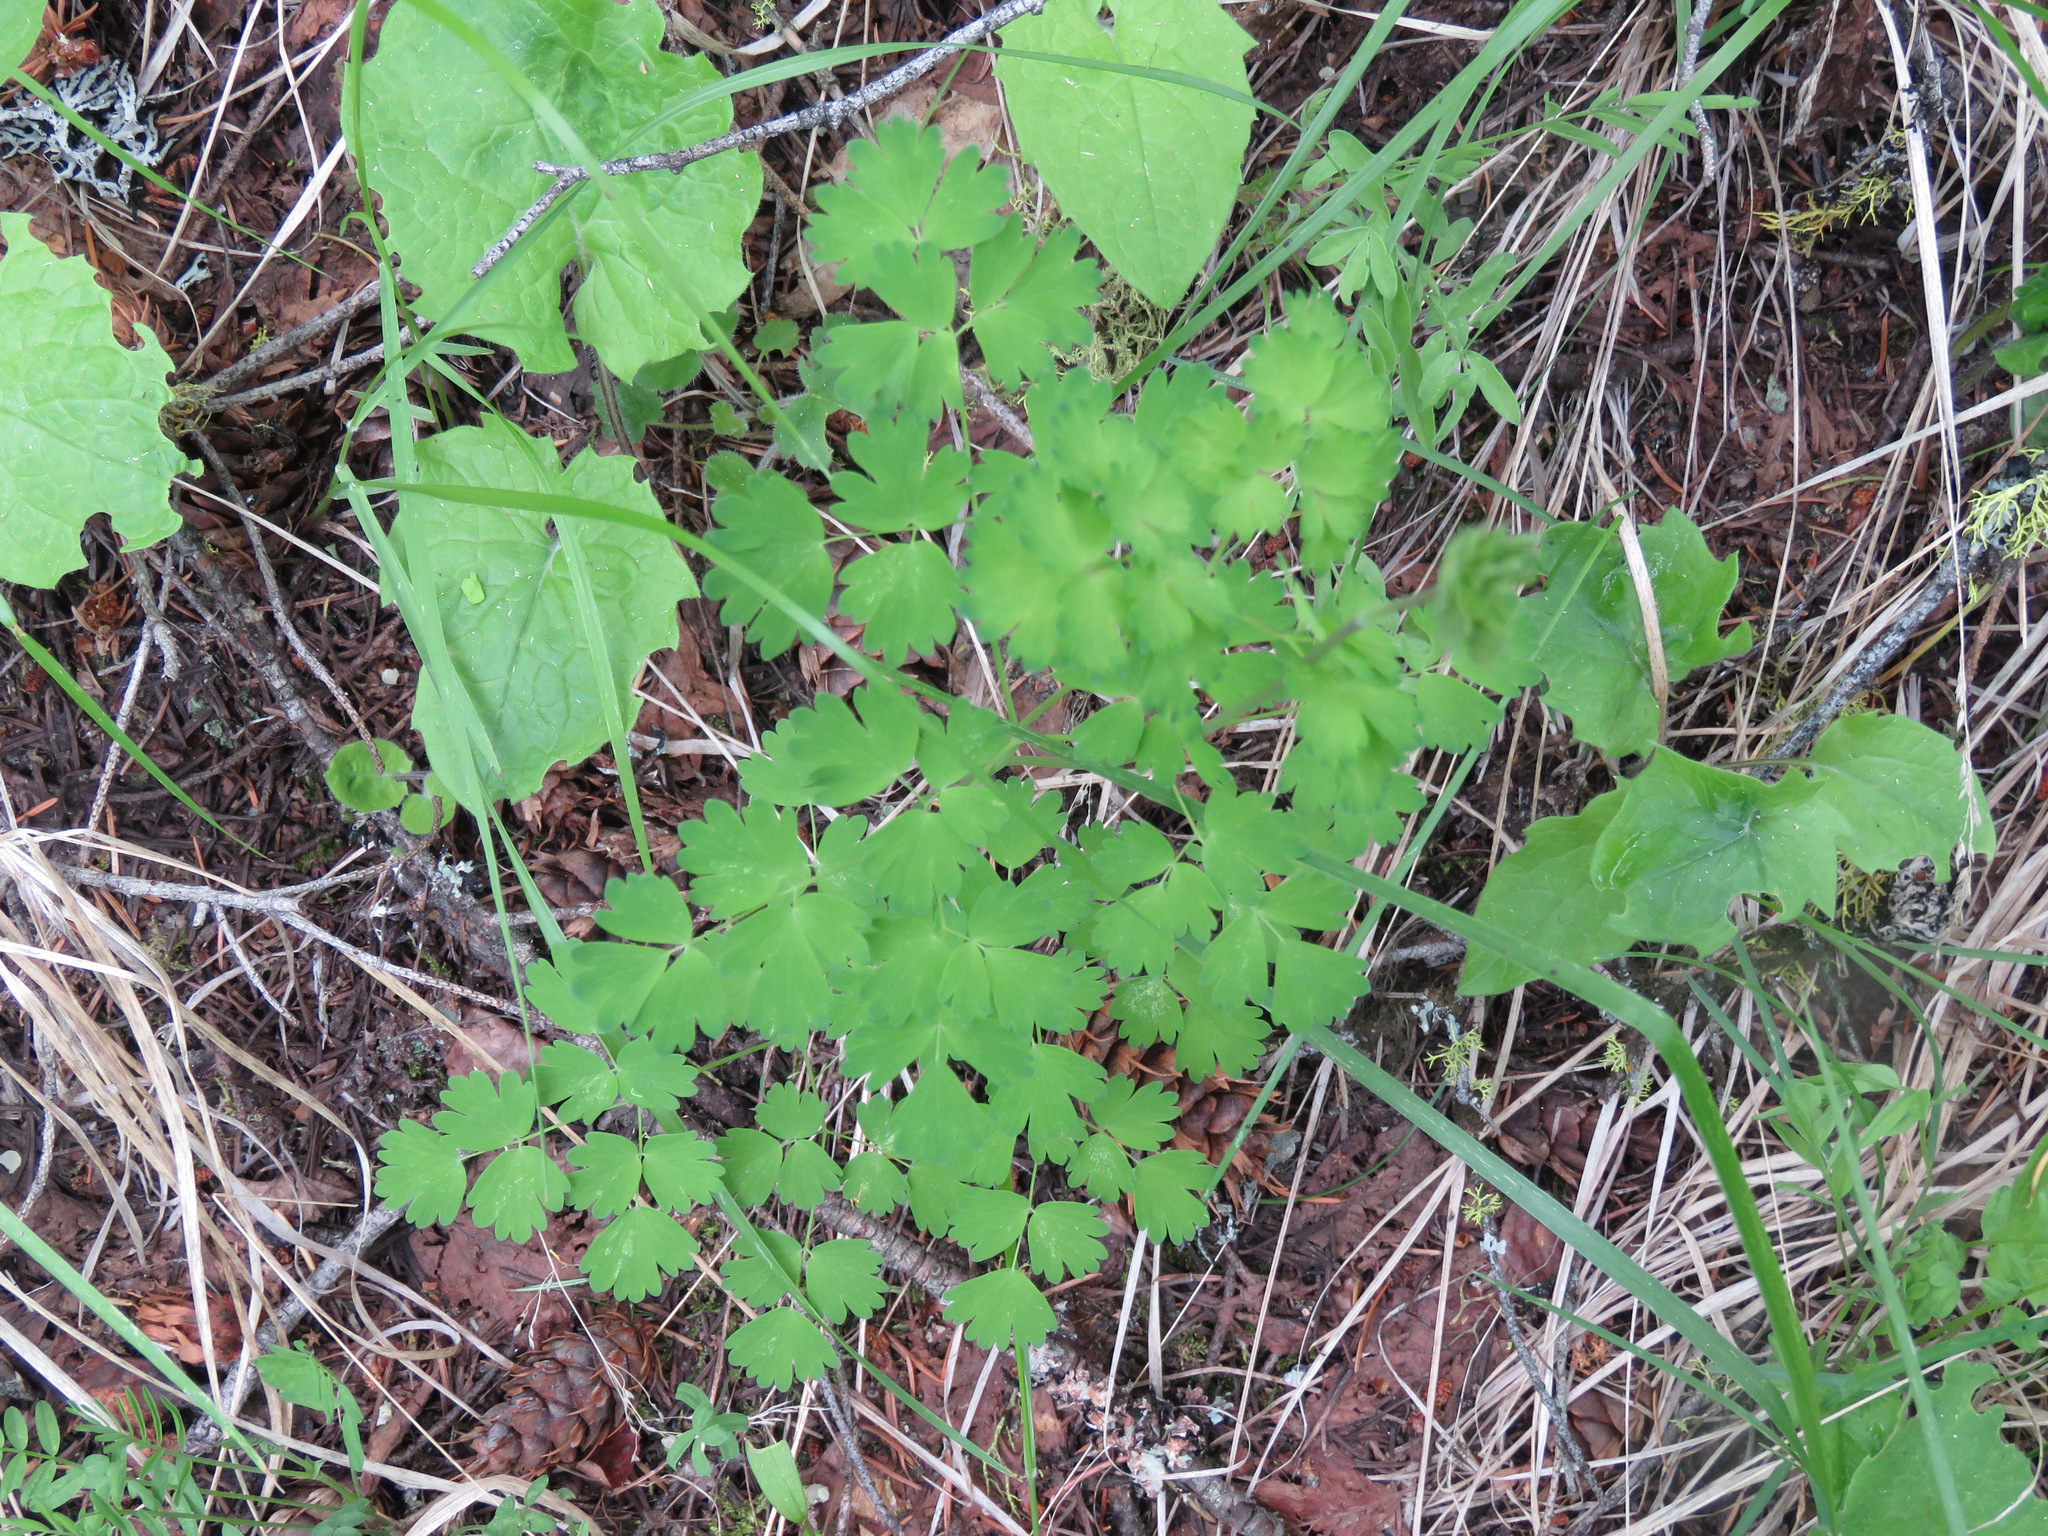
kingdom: Plantae
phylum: Tracheophyta
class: Magnoliopsida
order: Ranunculales
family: Ranunculaceae
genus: Thalictrum
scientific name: Thalictrum occidentale
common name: Western meadow-rue
